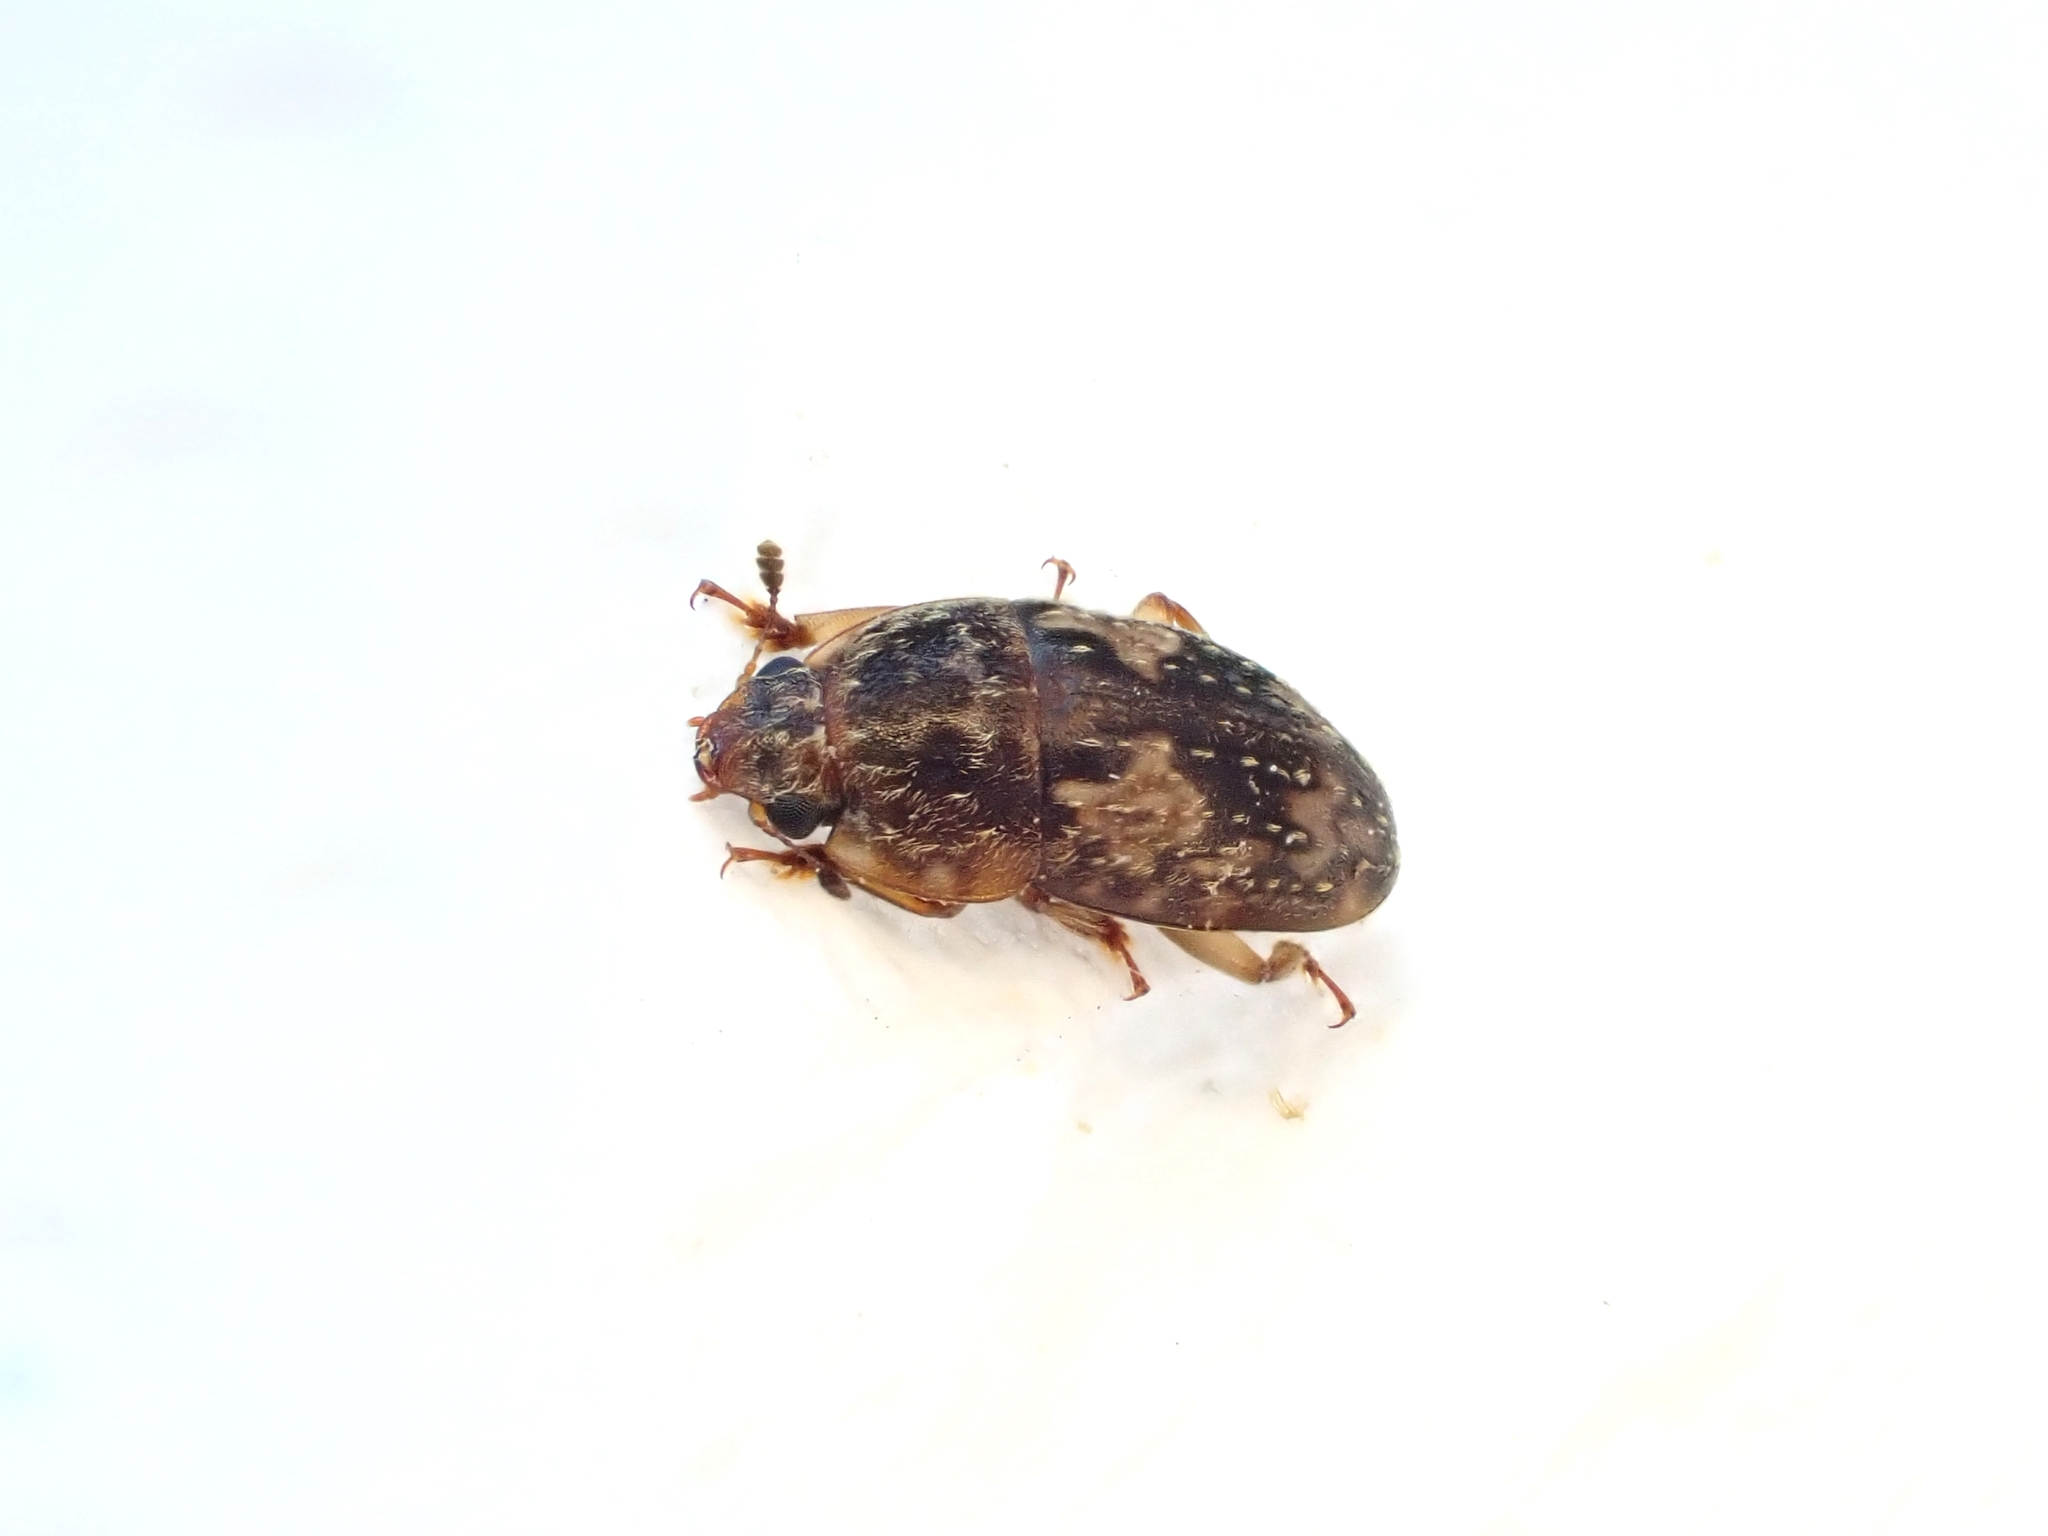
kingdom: Animalia
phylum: Arthropoda
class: Insecta
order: Coleoptera
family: Nitidulidae
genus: Homepuraea
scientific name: Homepuraea
